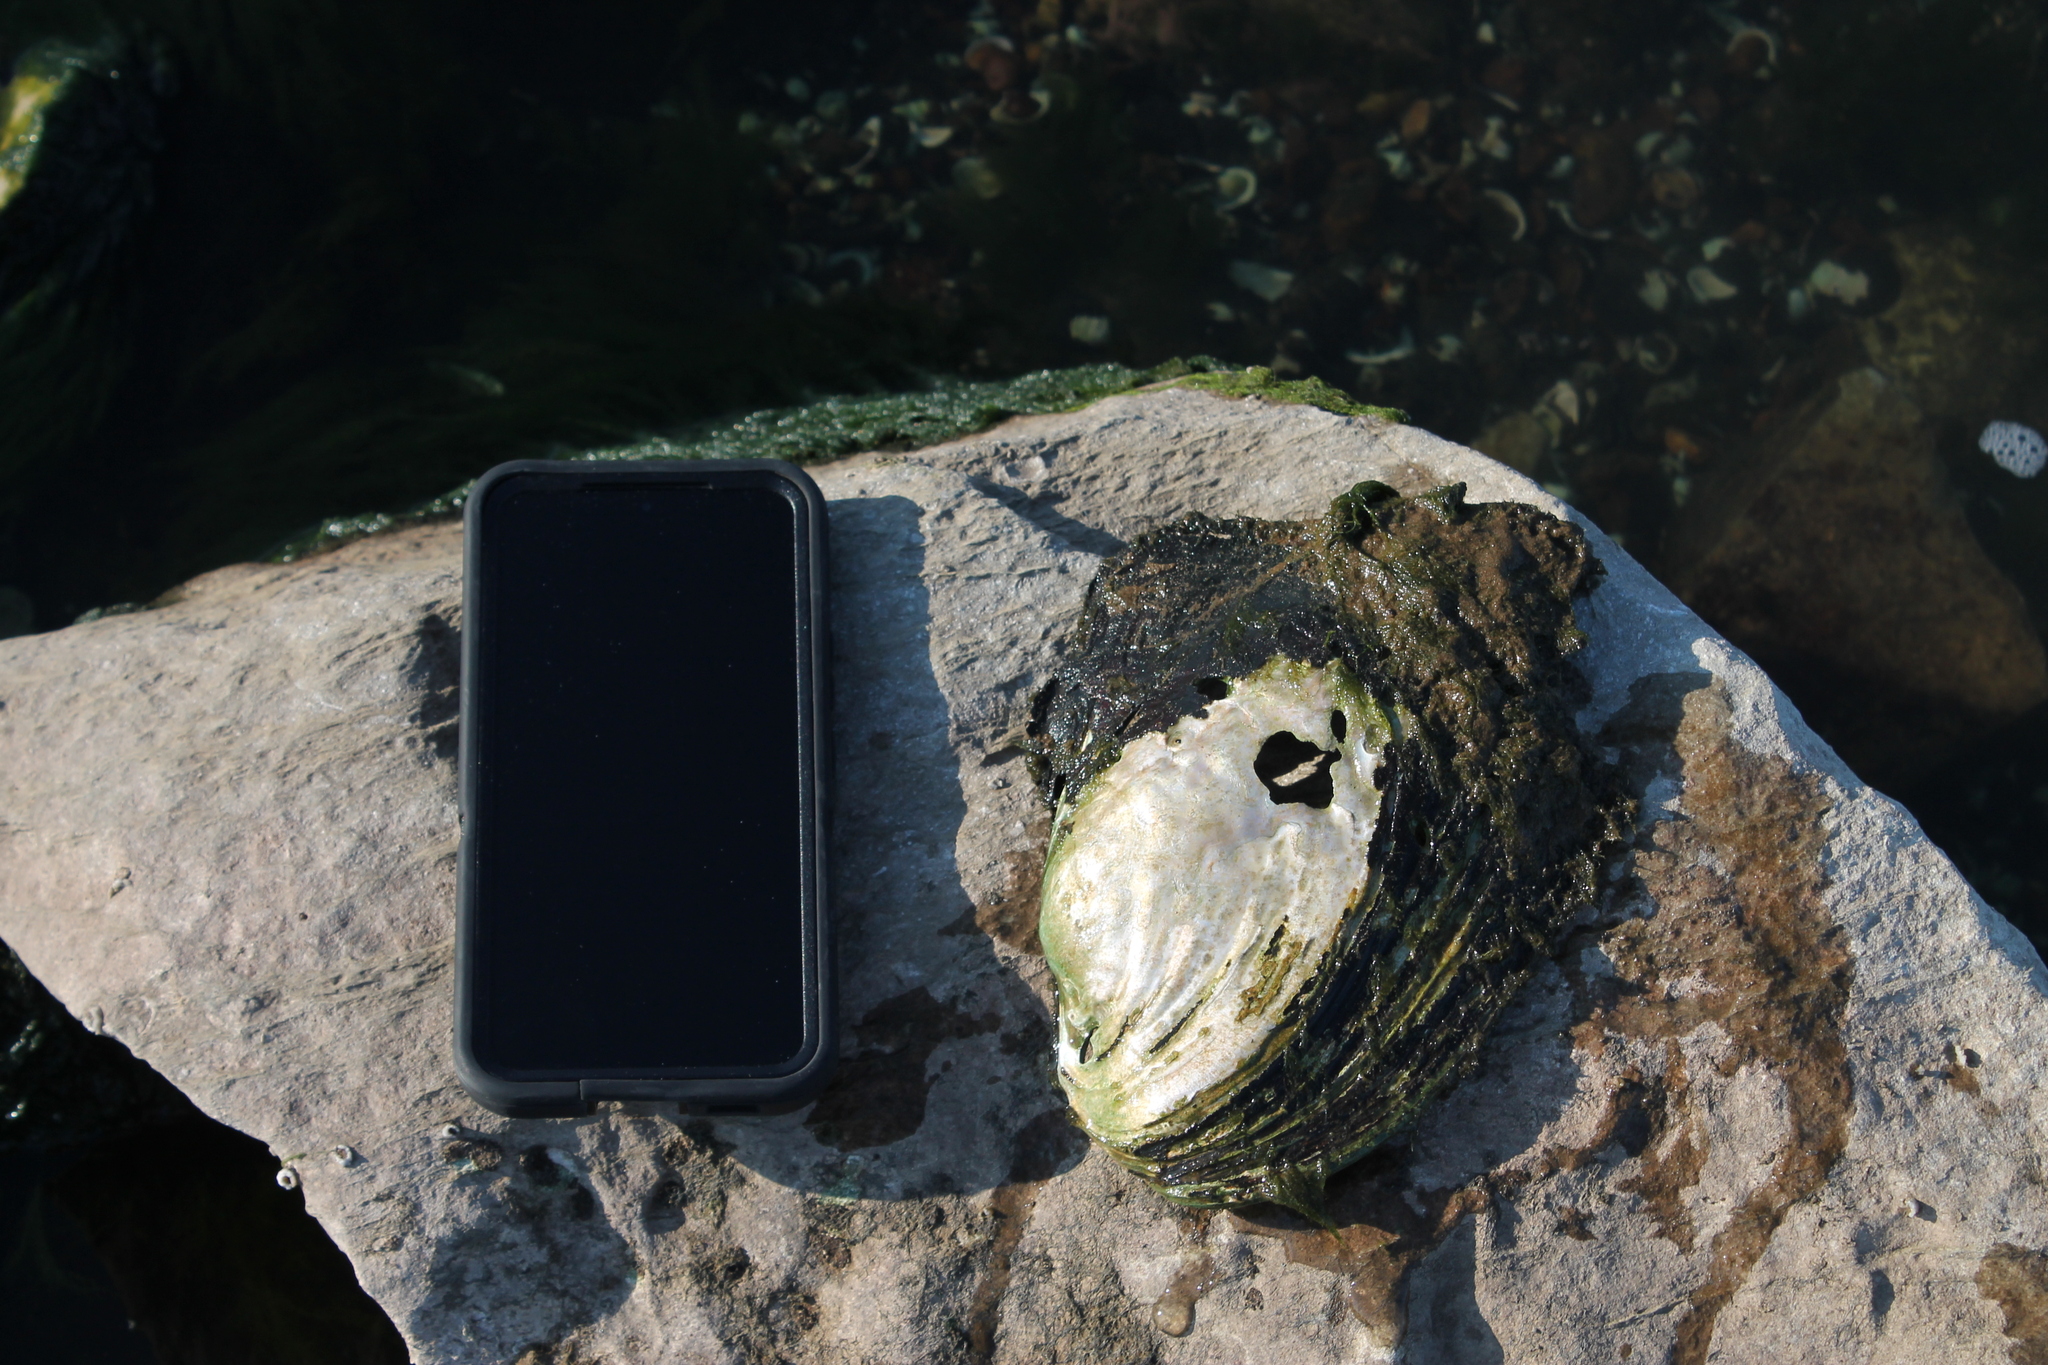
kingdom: Animalia
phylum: Mollusca
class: Bivalvia
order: Unionida
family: Unionidae
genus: Potamilus
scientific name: Potamilus alatus
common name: Pink heelsplitter
